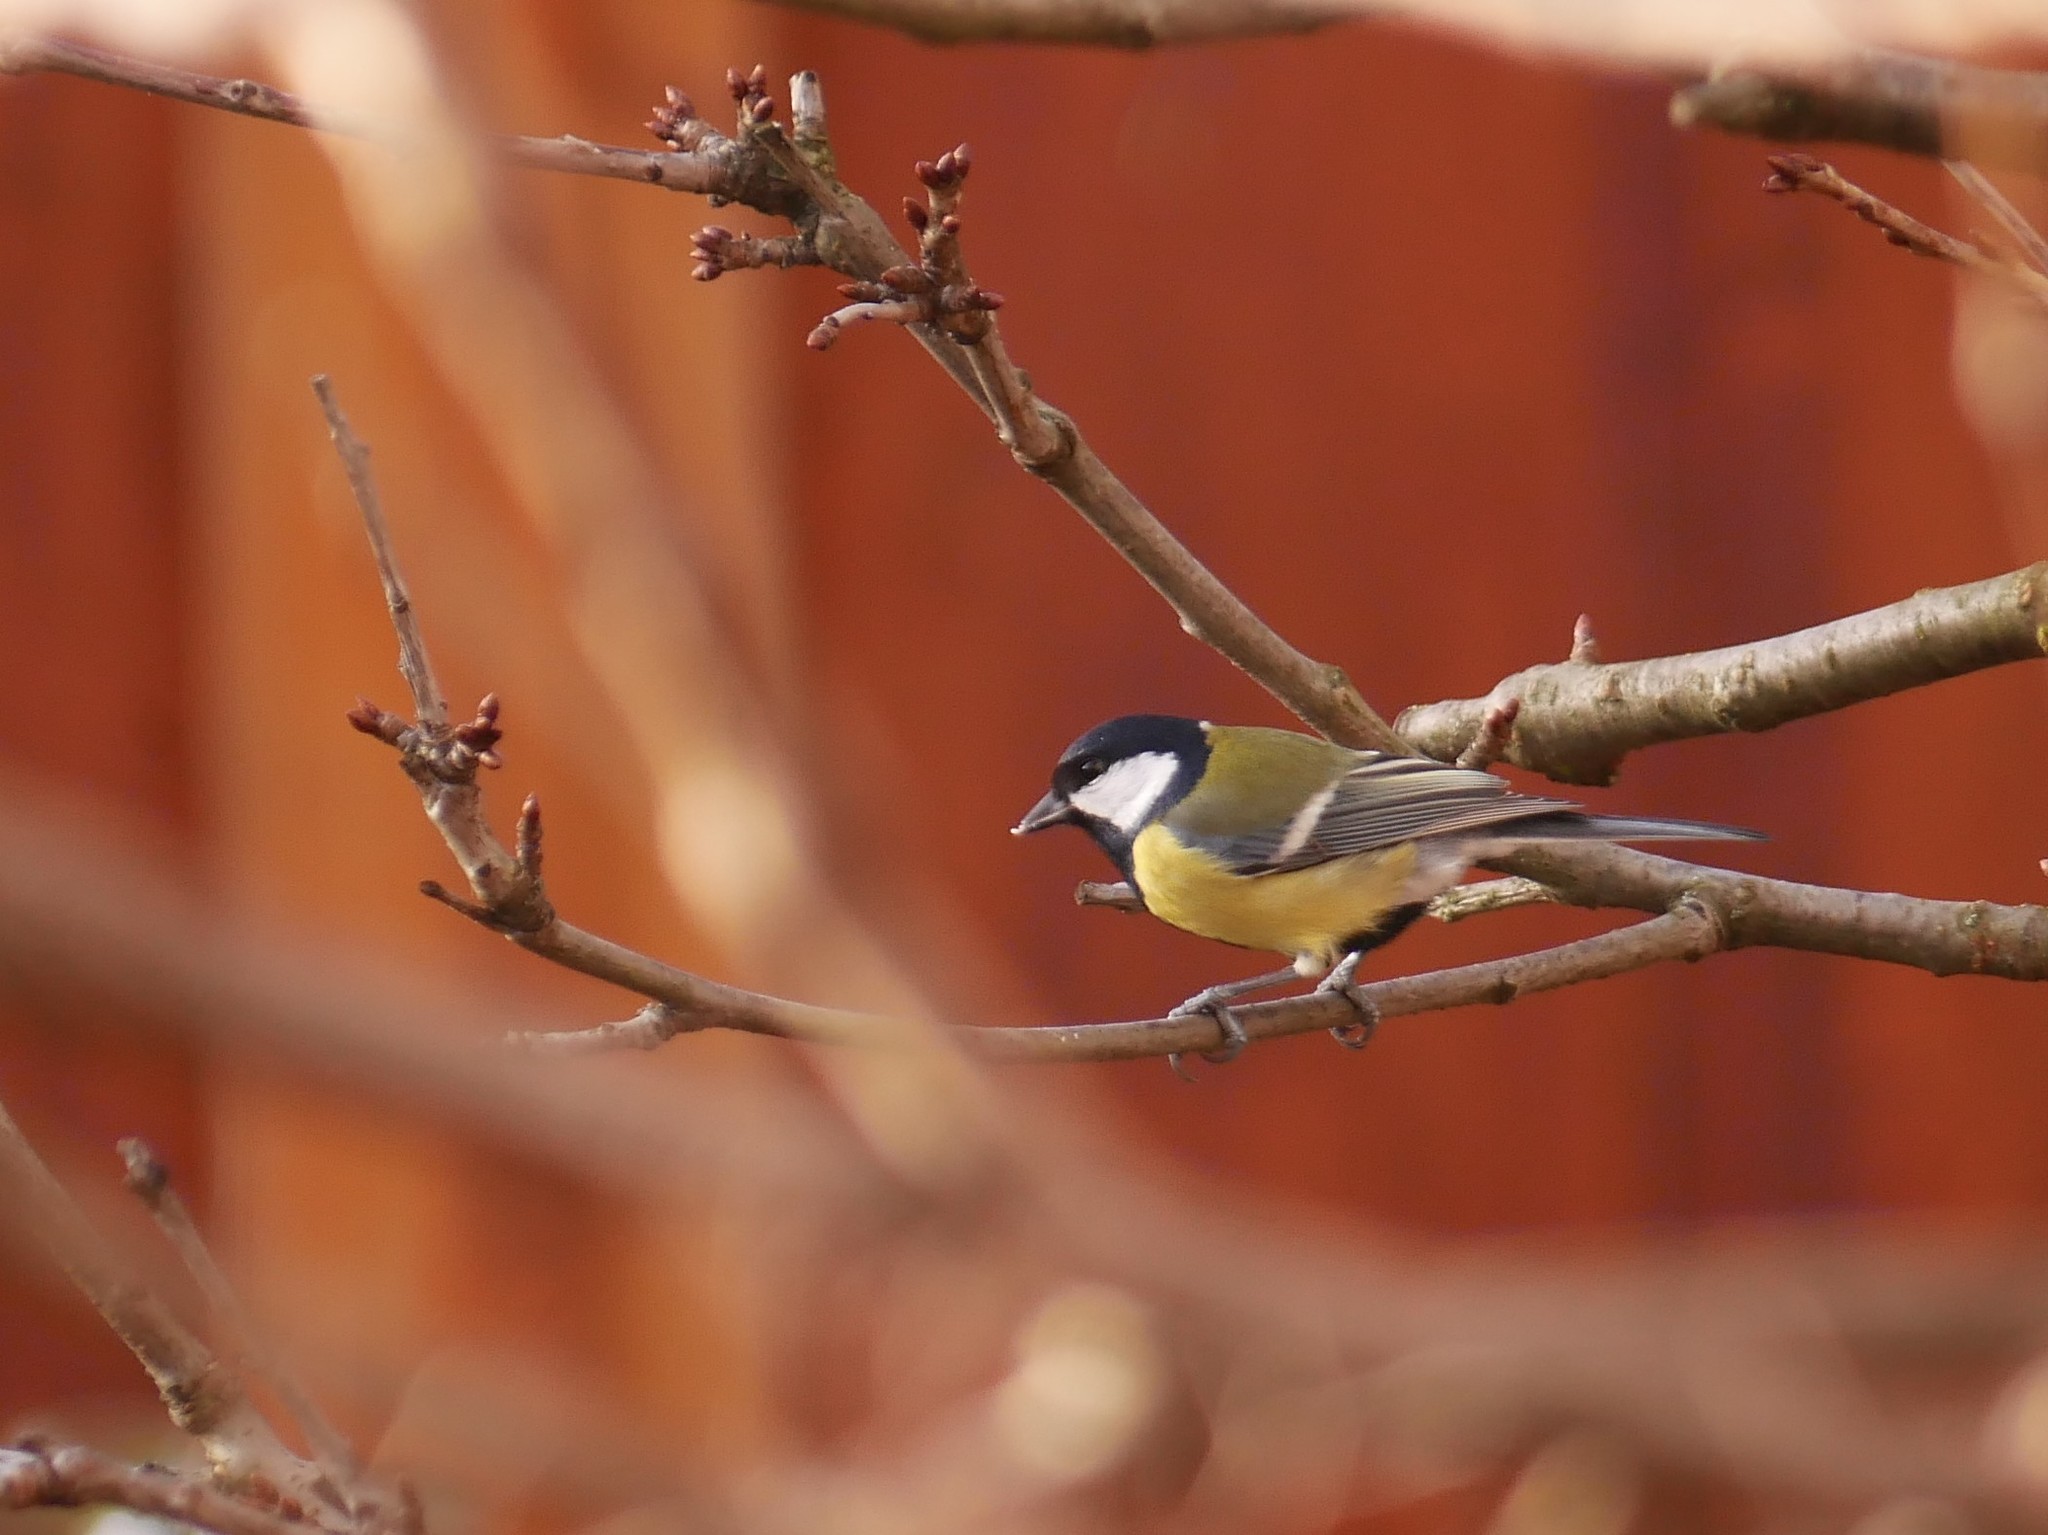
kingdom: Animalia
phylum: Chordata
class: Aves
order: Passeriformes
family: Paridae
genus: Parus
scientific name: Parus major
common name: Great tit
